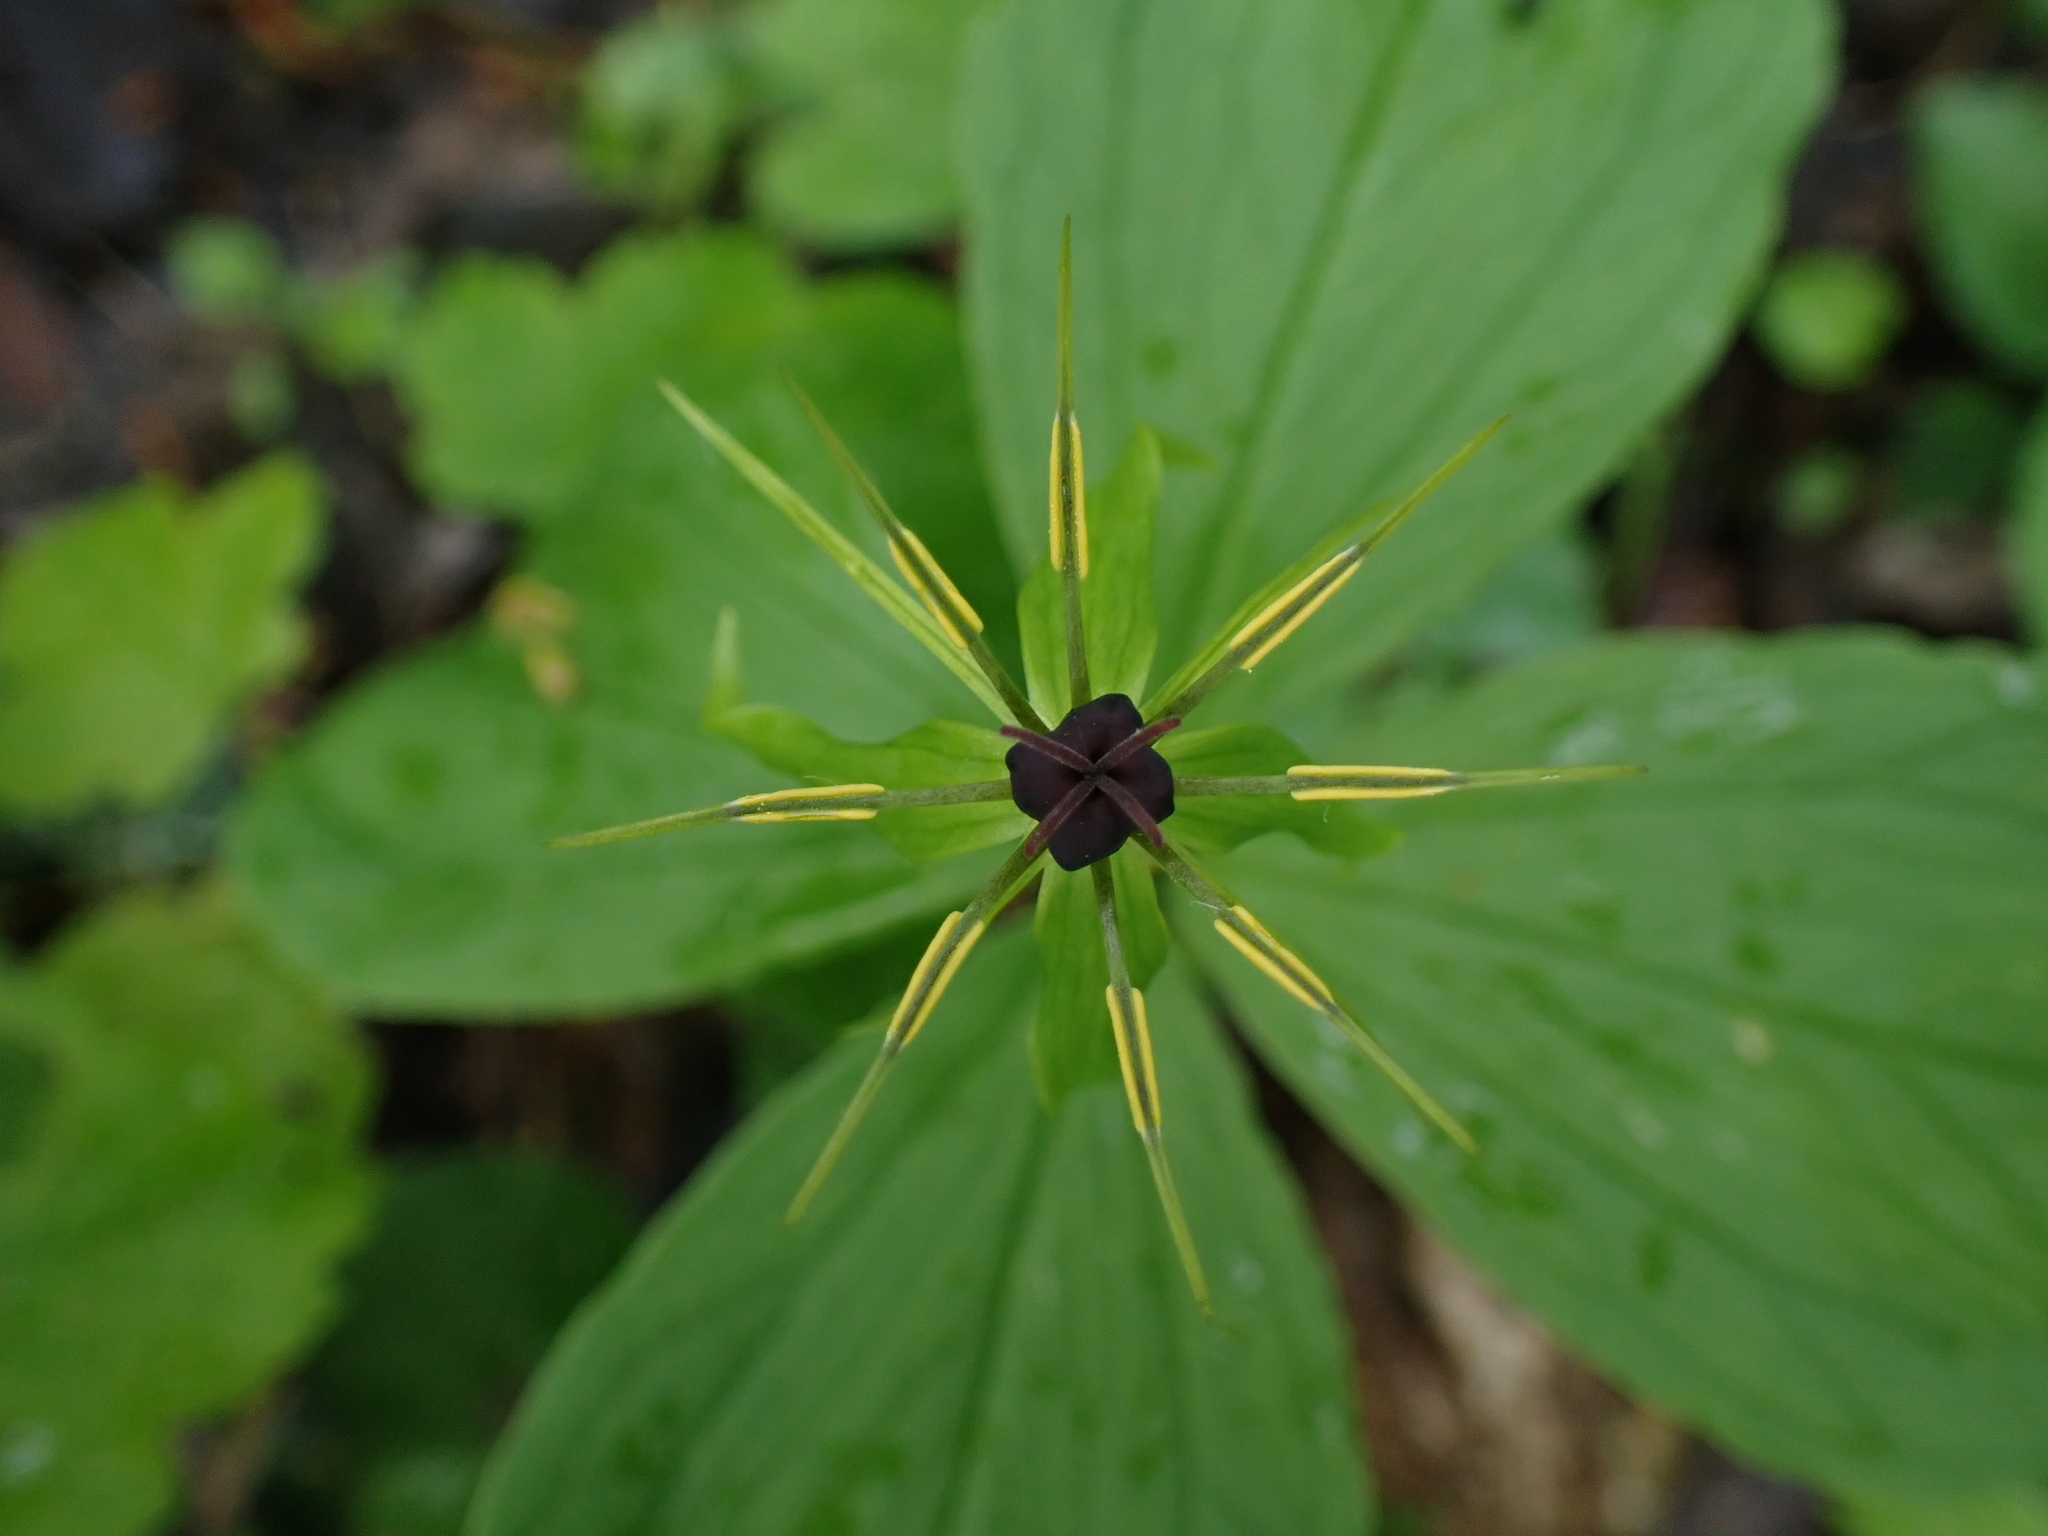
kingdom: Plantae
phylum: Tracheophyta
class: Liliopsida
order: Liliales
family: Melanthiaceae
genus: Paris
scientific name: Paris quadrifolia
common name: Herb-paris
